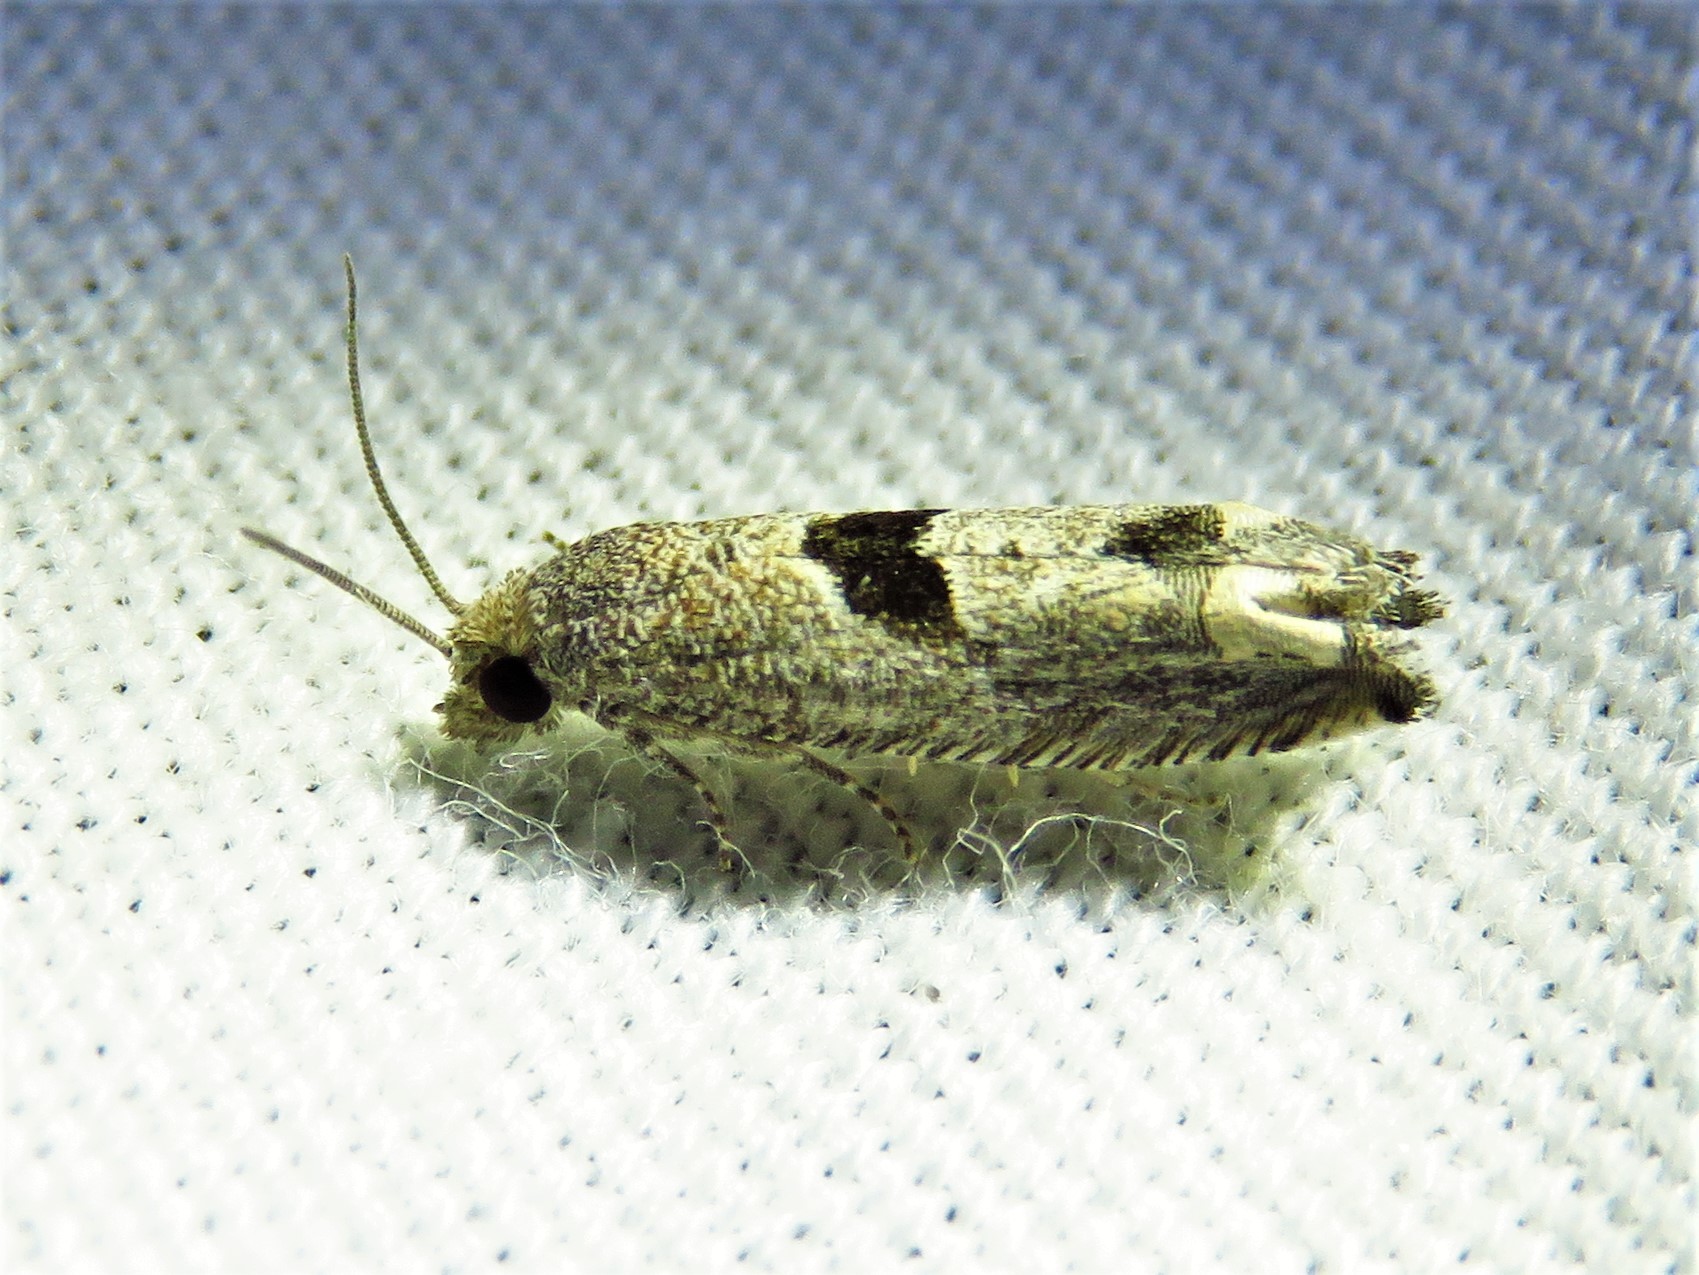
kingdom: Animalia
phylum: Arthropoda
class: Insecta
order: Lepidoptera
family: Tortricidae
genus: Suleima
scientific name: Suleima helianthana
